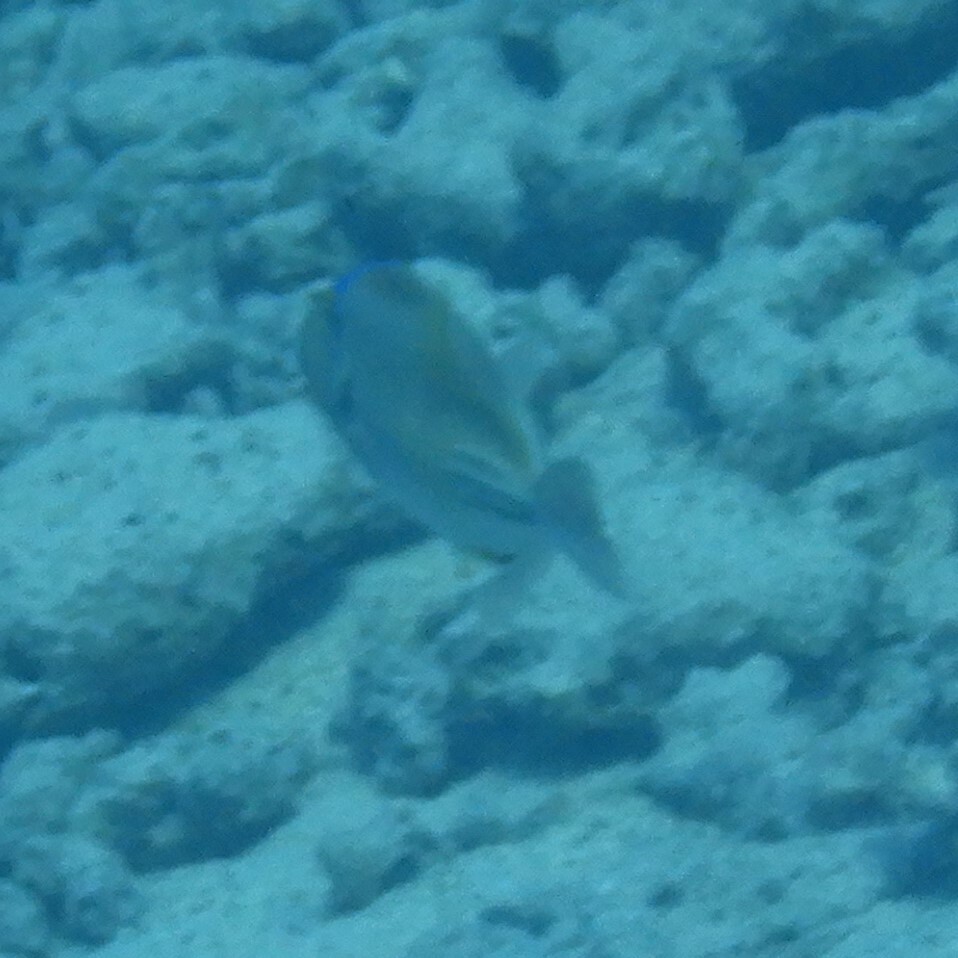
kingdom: Animalia
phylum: Chordata
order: Tetraodontiformes
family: Balistidae
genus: Rhinecanthus
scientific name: Rhinecanthus assasi
